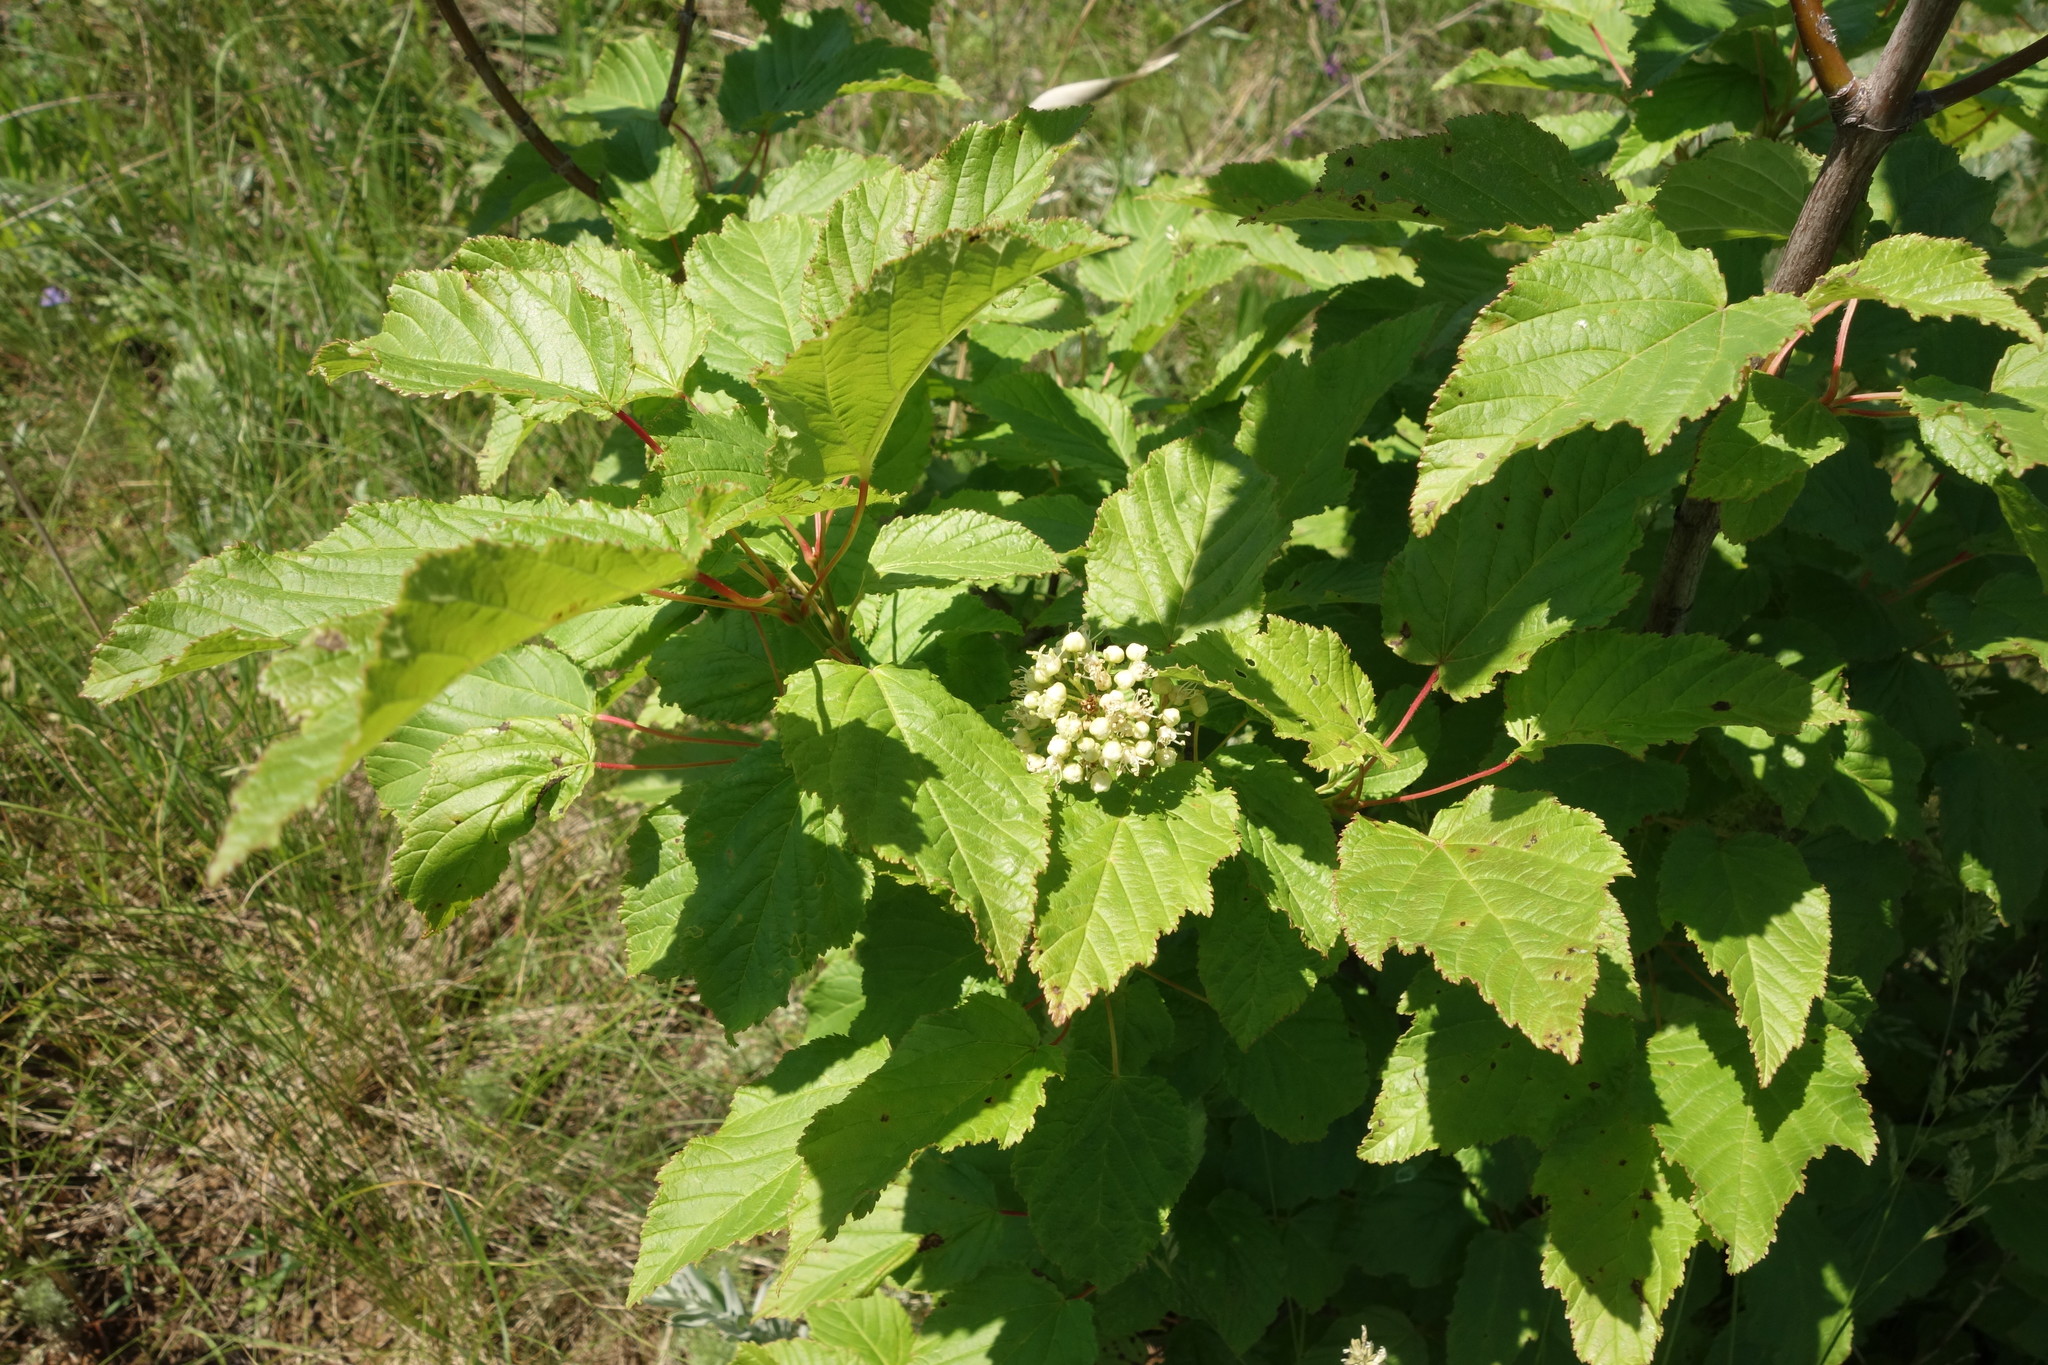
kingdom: Plantae
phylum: Tracheophyta
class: Magnoliopsida
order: Sapindales
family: Sapindaceae
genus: Acer
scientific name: Acer tataricum
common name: Tartar maple
